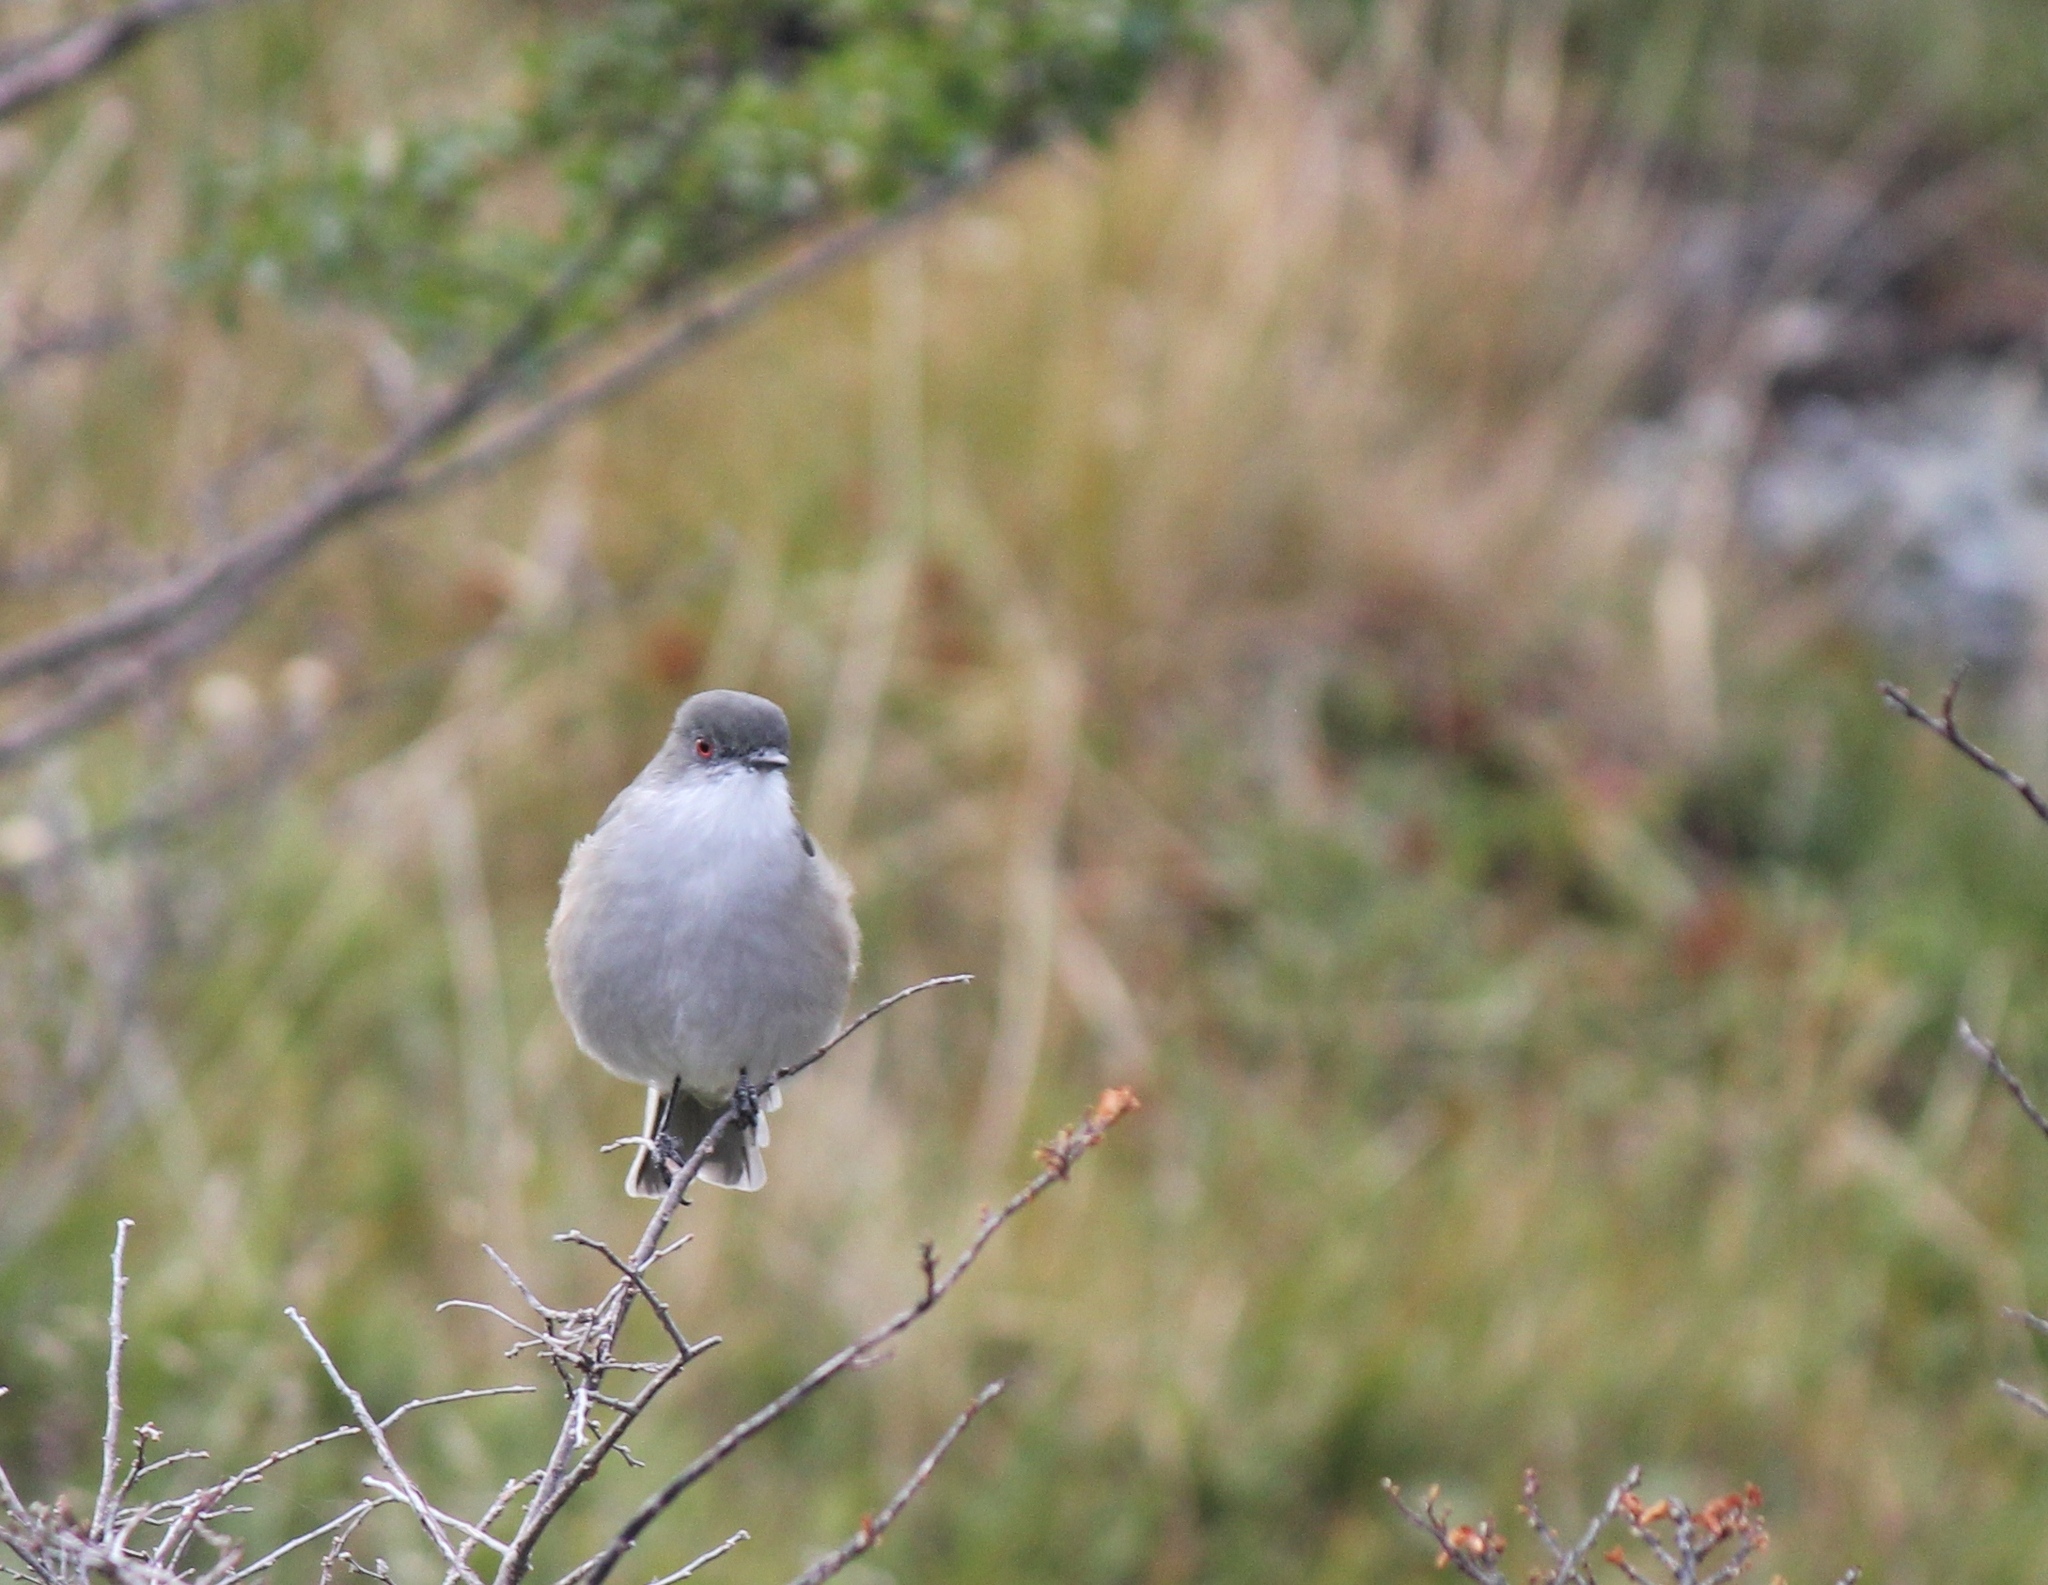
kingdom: Animalia
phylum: Chordata
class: Aves
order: Passeriformes
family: Tyrannidae
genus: Xolmis
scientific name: Xolmis pyrope
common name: Fire-eyed diucon
